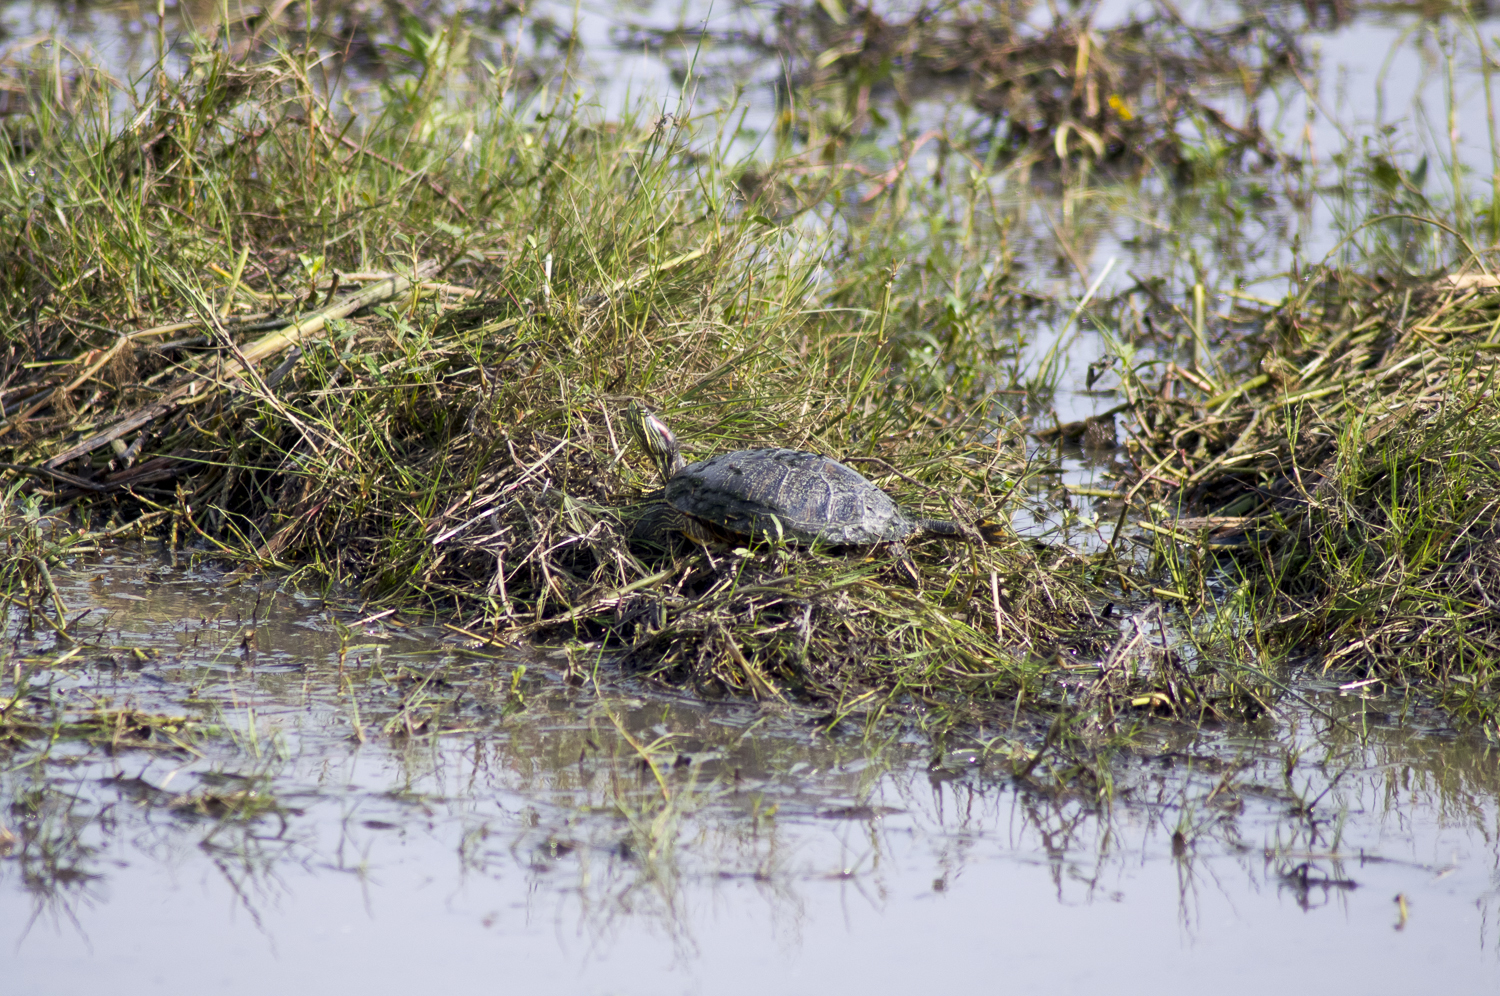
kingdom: Animalia
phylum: Chordata
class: Testudines
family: Emydidae
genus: Trachemys
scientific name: Trachemys scripta
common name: Slider
